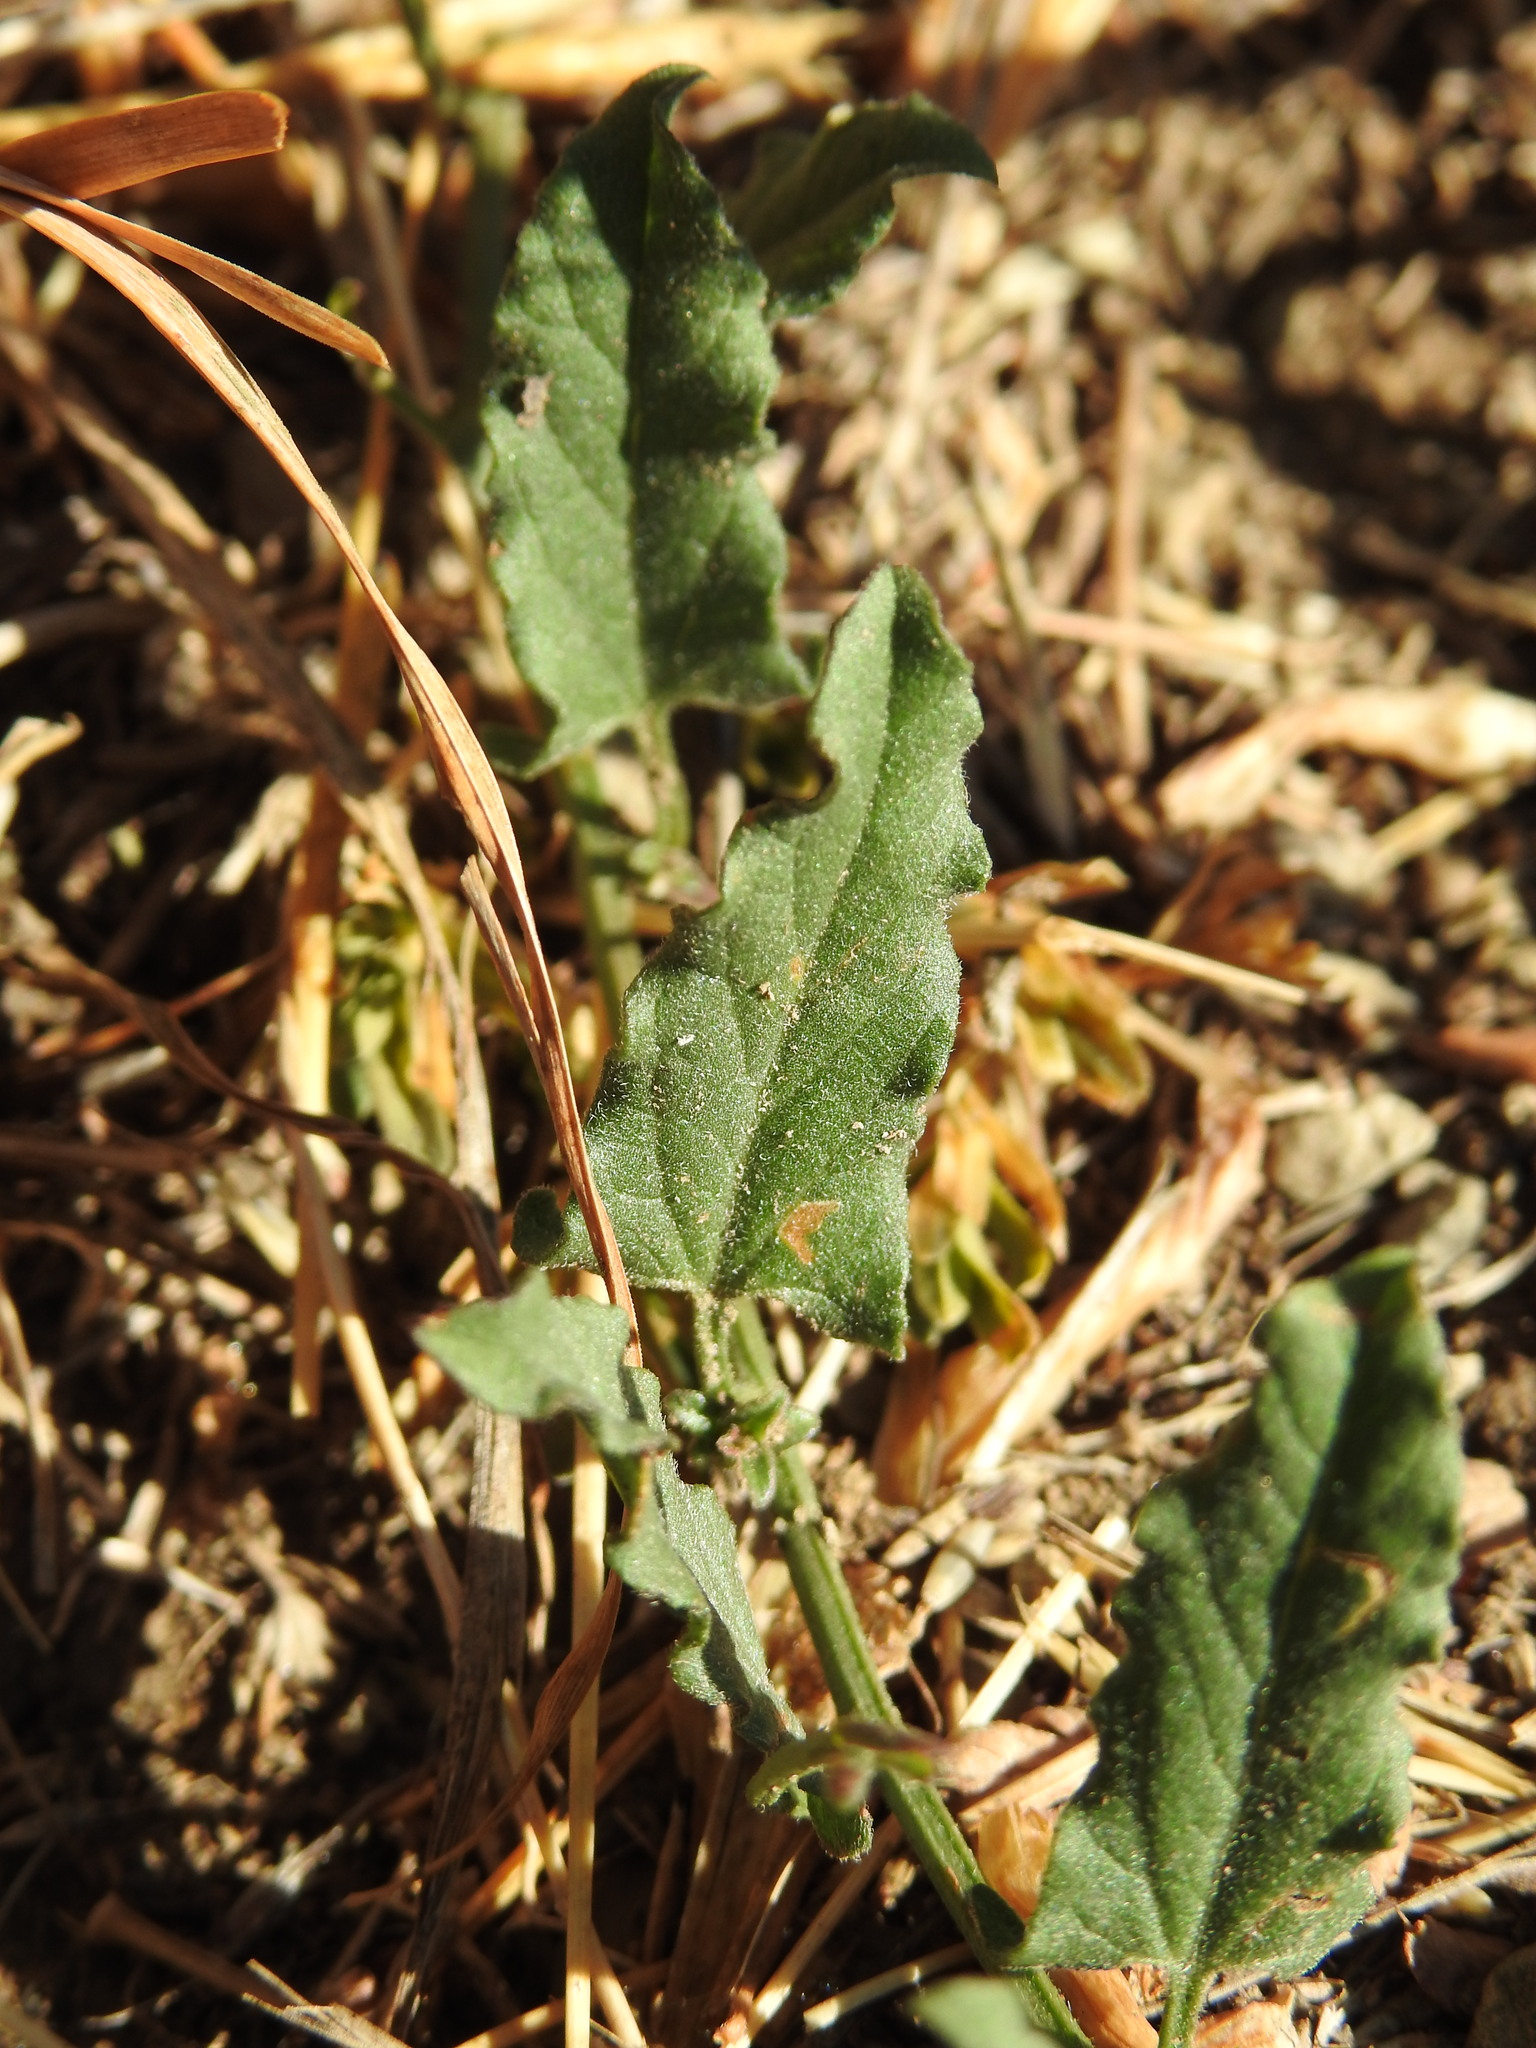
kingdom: Plantae
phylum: Tracheophyta
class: Magnoliopsida
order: Solanales
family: Convolvulaceae
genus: Convolvulus
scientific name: Convolvulus arvensis
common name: Field bindweed
